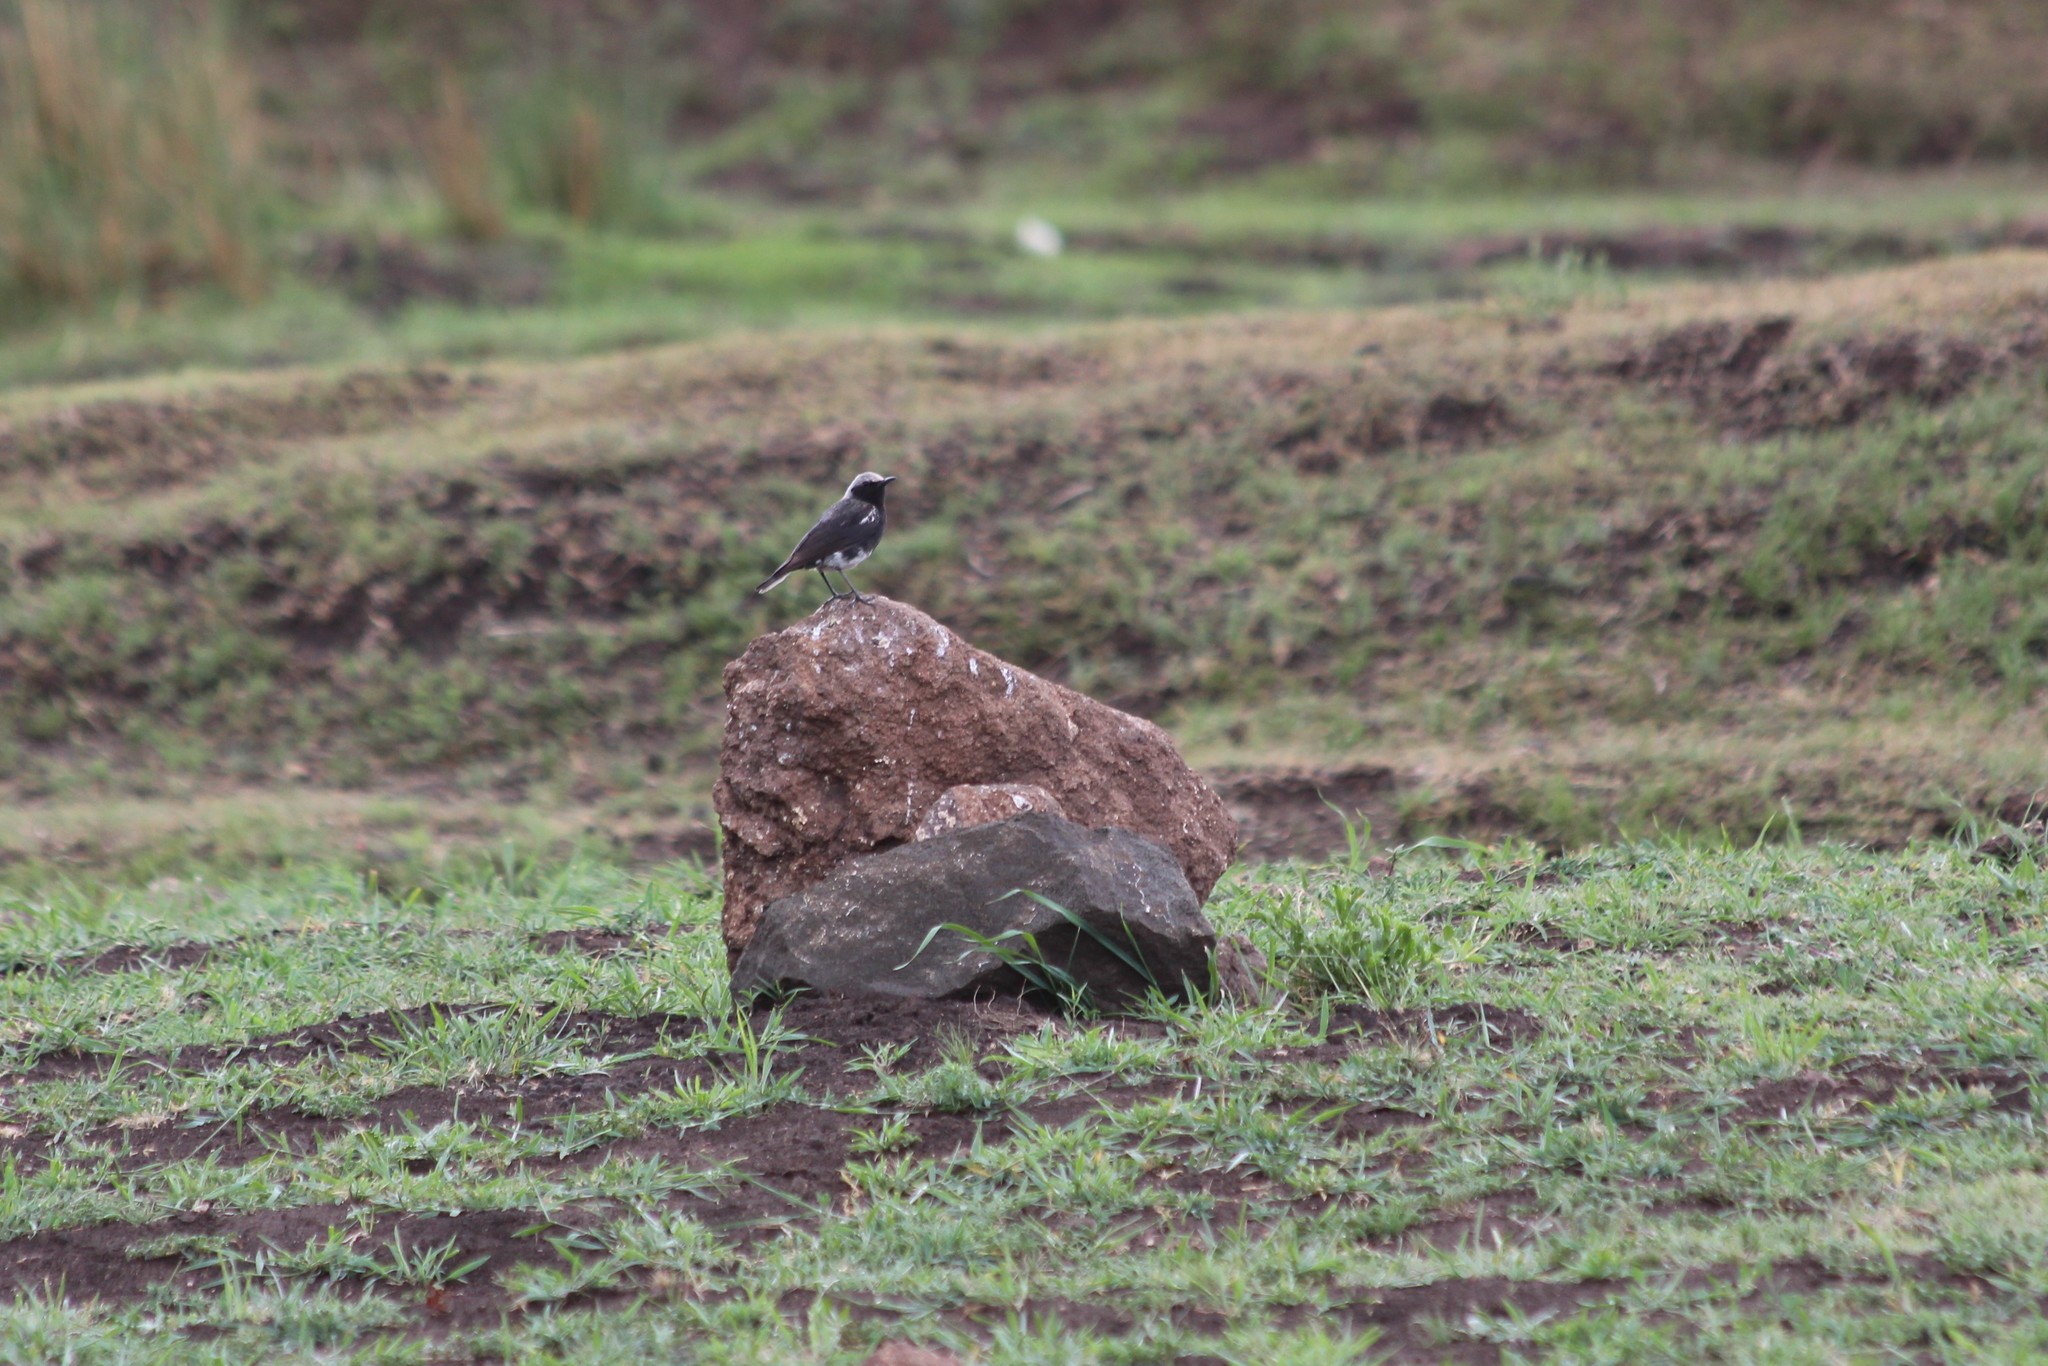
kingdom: Animalia
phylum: Chordata
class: Aves
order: Passeriformes
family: Muscicapidae
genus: Oenanthe
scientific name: Oenanthe monticola
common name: Mountain wheatear
